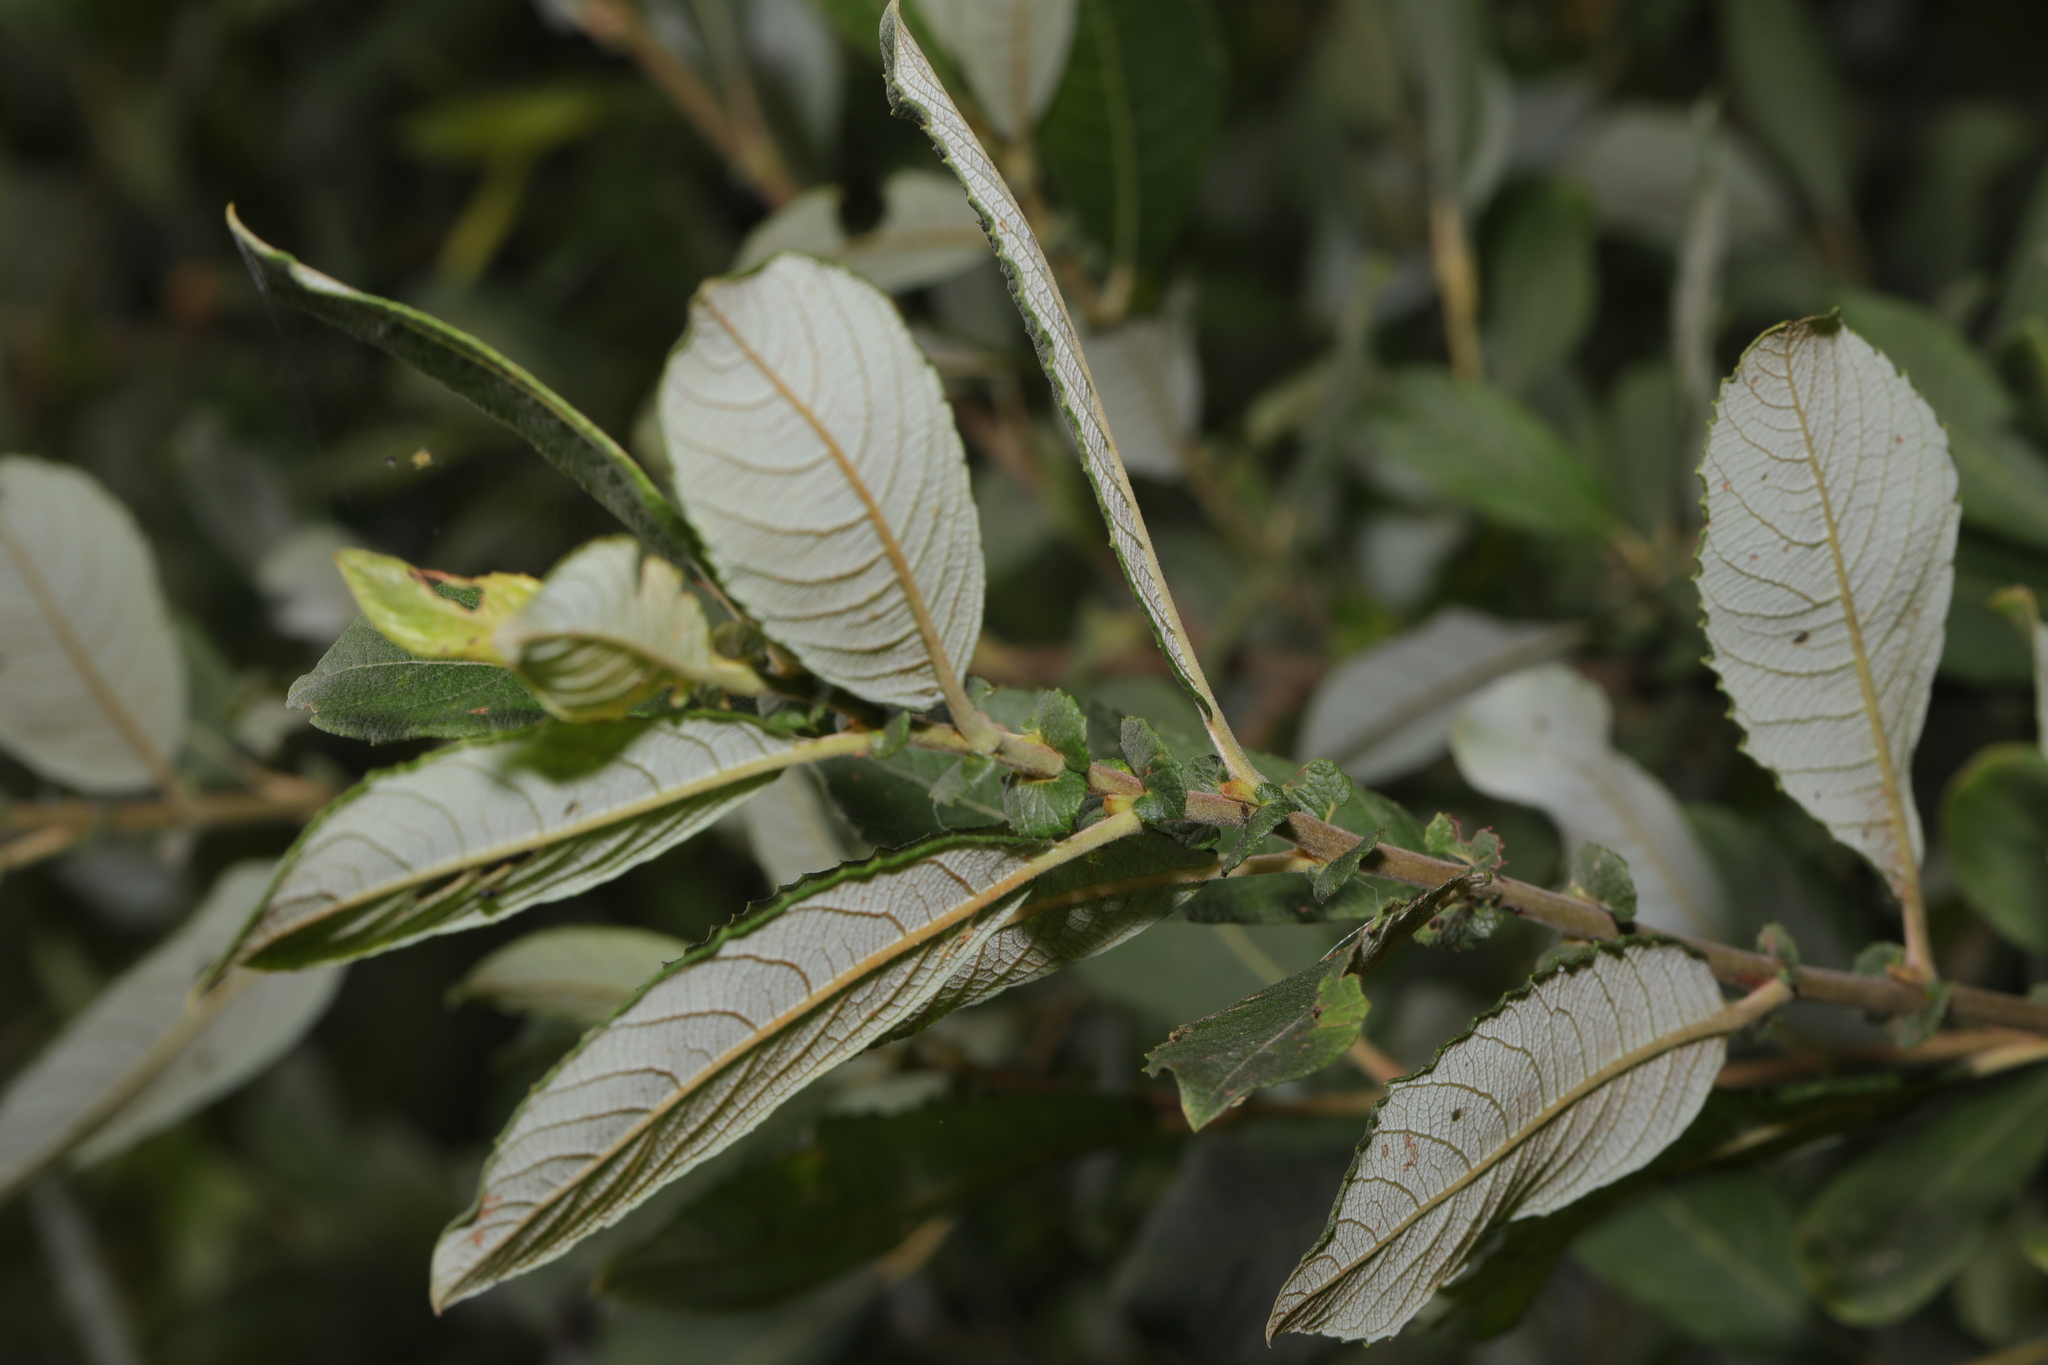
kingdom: Plantae
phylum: Tracheophyta
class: Magnoliopsida
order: Malpighiales
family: Salicaceae
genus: Salix
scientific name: Salix atrocinerea
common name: Rusty willow
